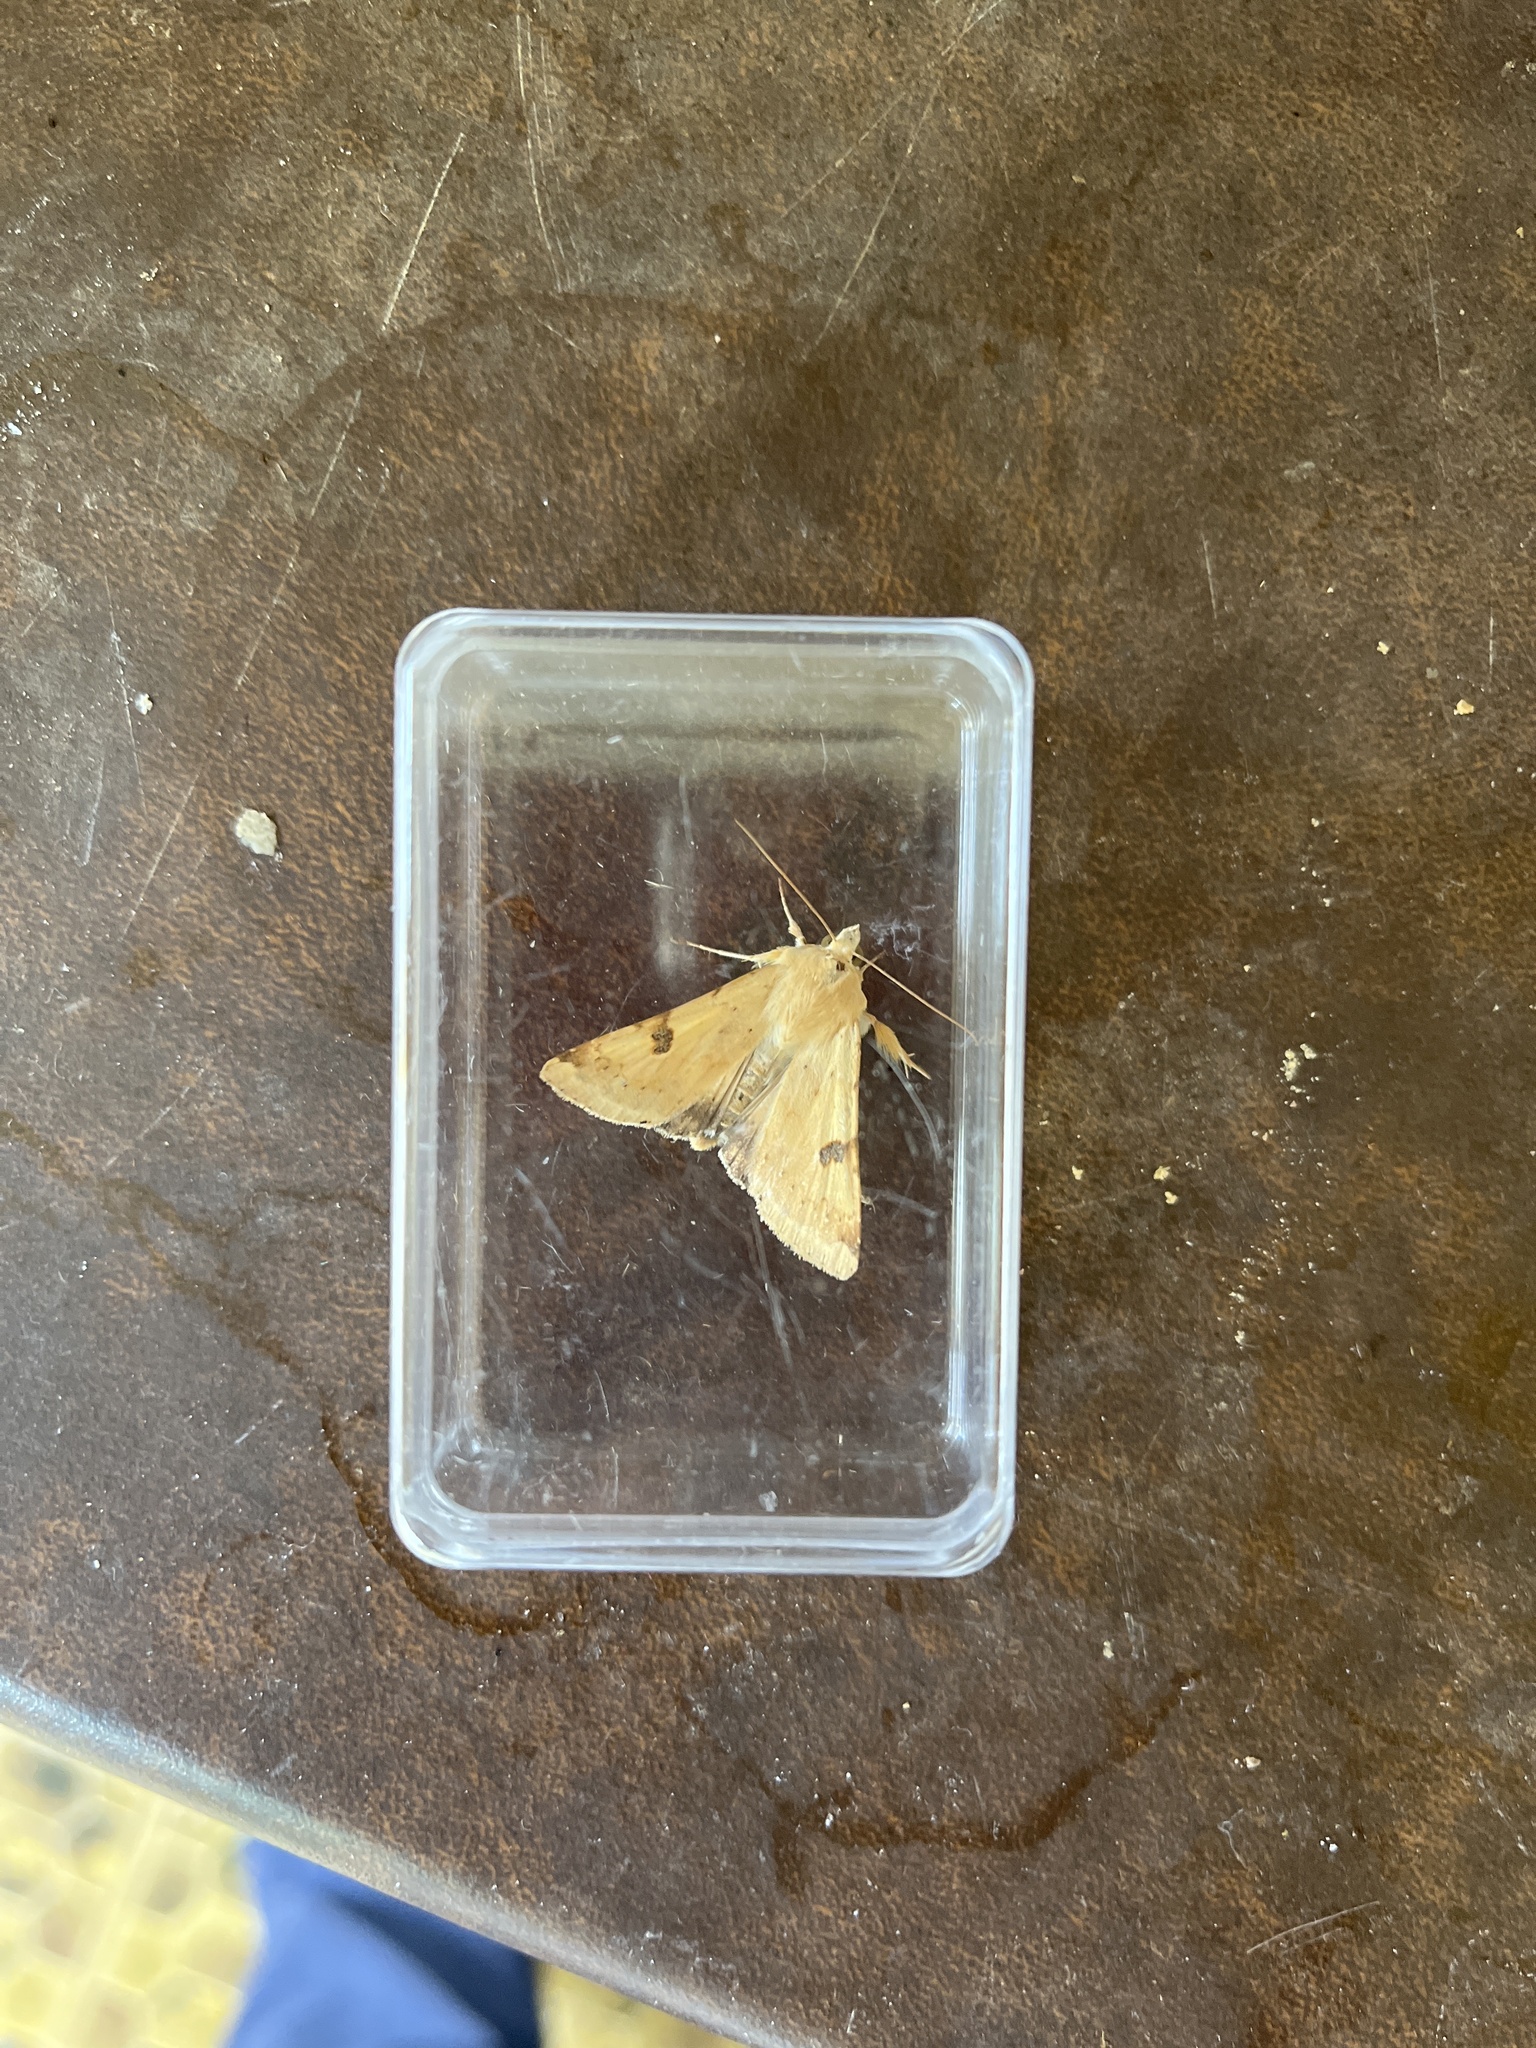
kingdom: Animalia
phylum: Arthropoda
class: Insecta
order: Lepidoptera
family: Noctuidae
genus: Heliothis
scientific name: Heliothis peltigera
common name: Bordered straw
